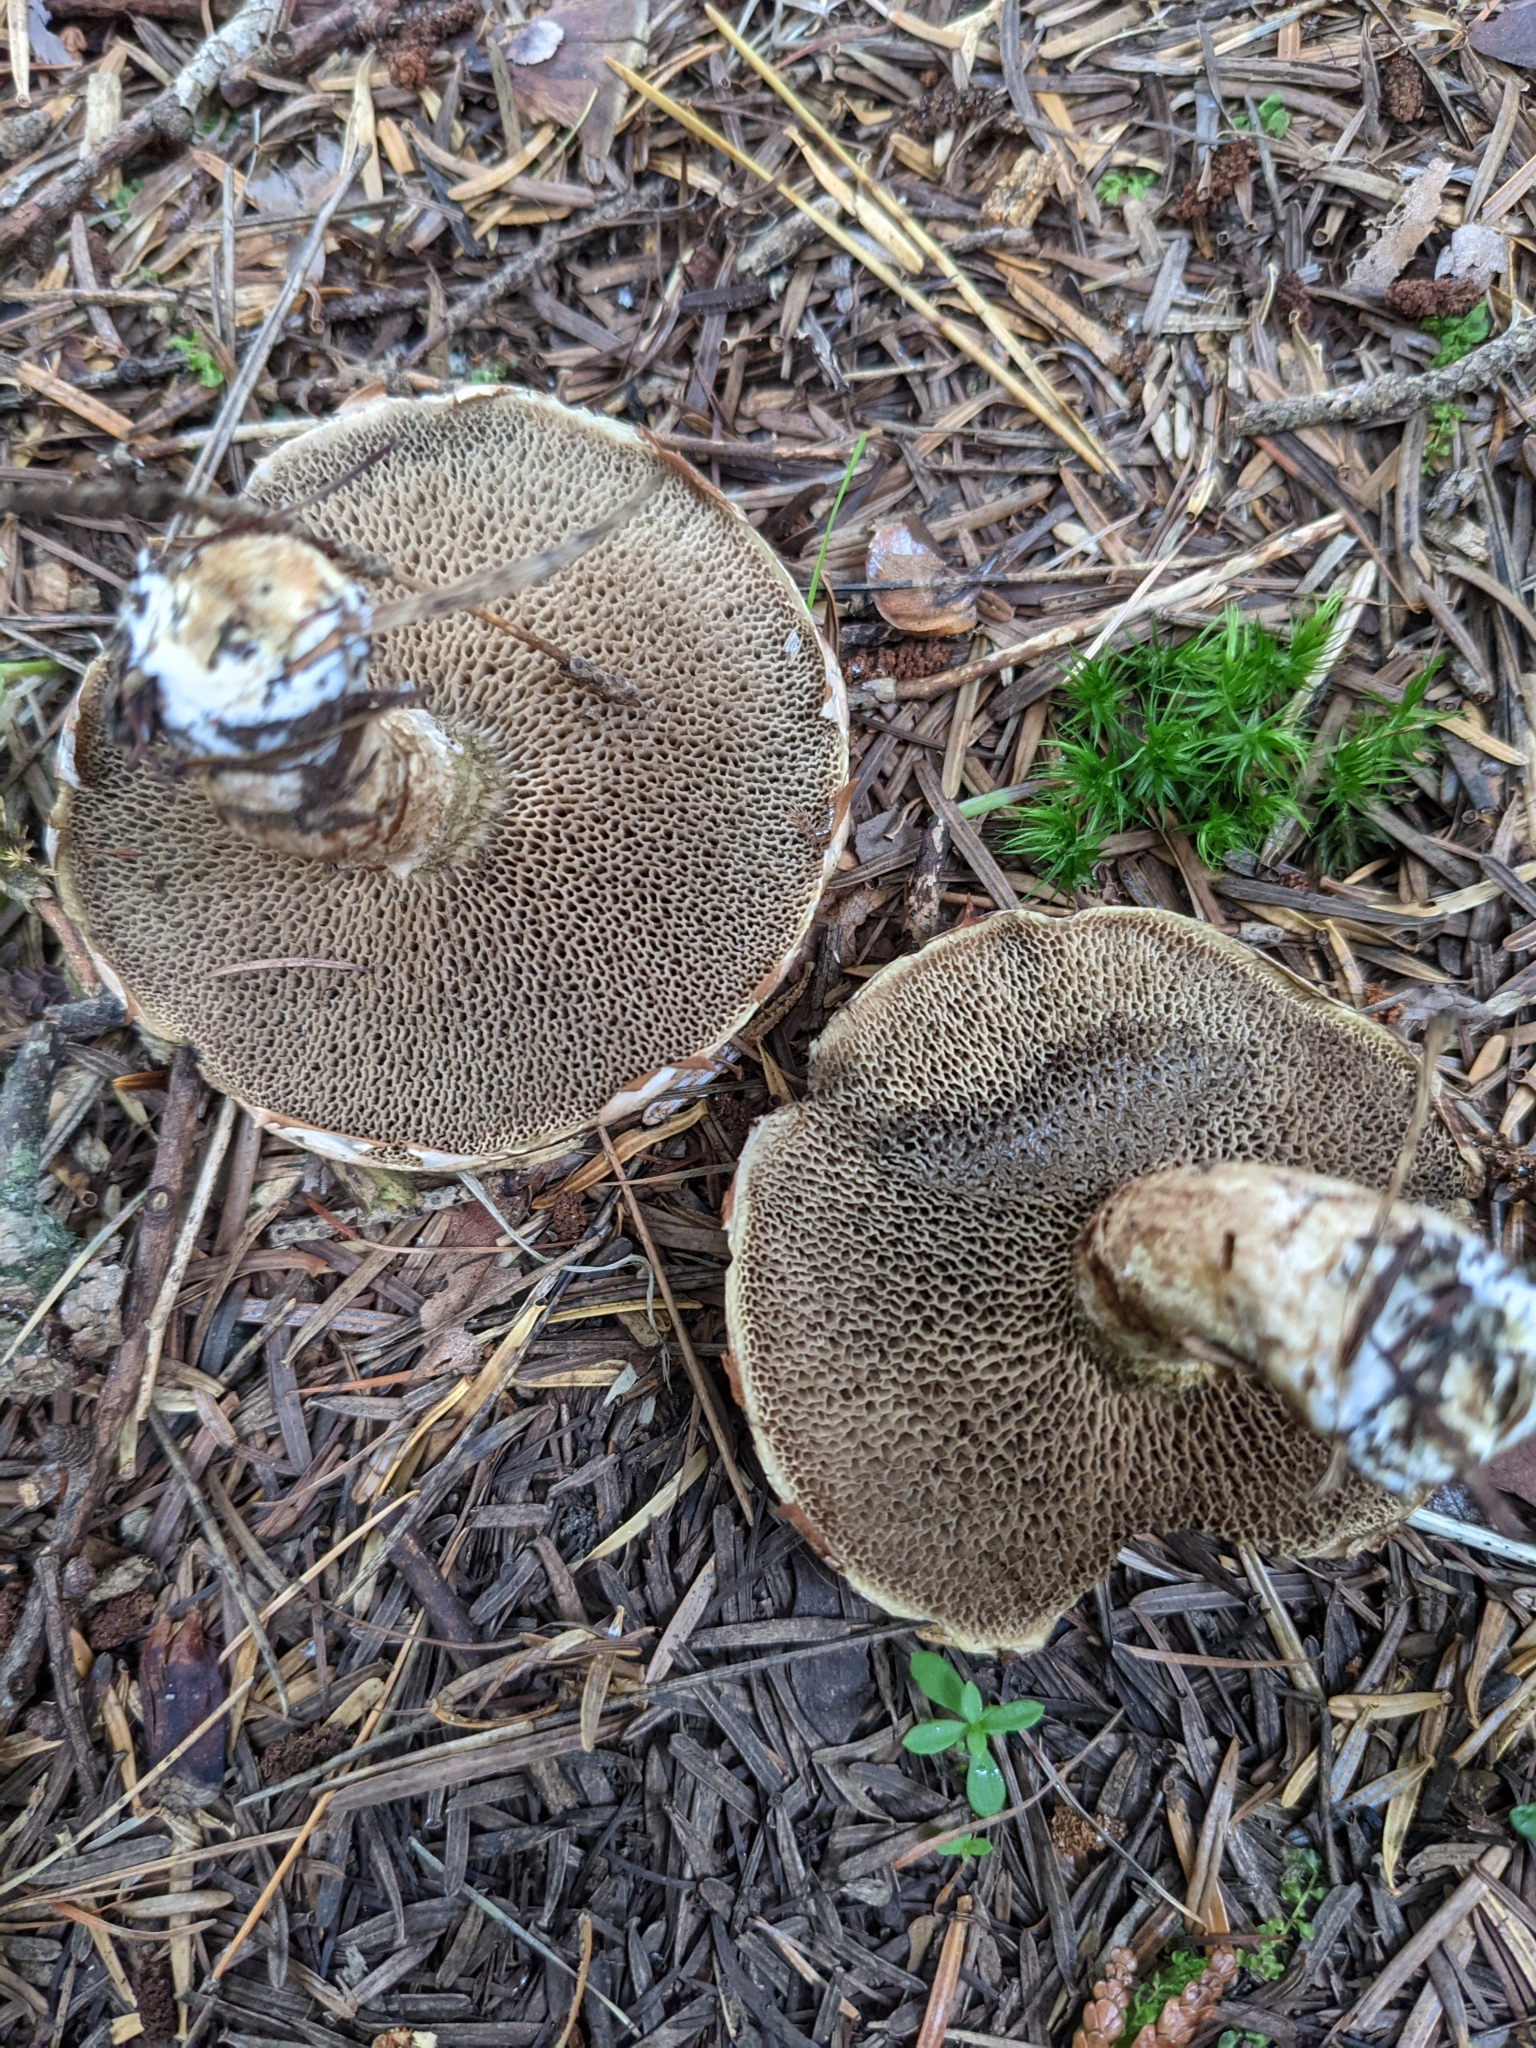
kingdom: Fungi
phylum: Basidiomycota
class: Agaricomycetes
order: Boletales
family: Suillaceae
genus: Suillus
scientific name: Suillus viscidus
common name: Sticky bolete
